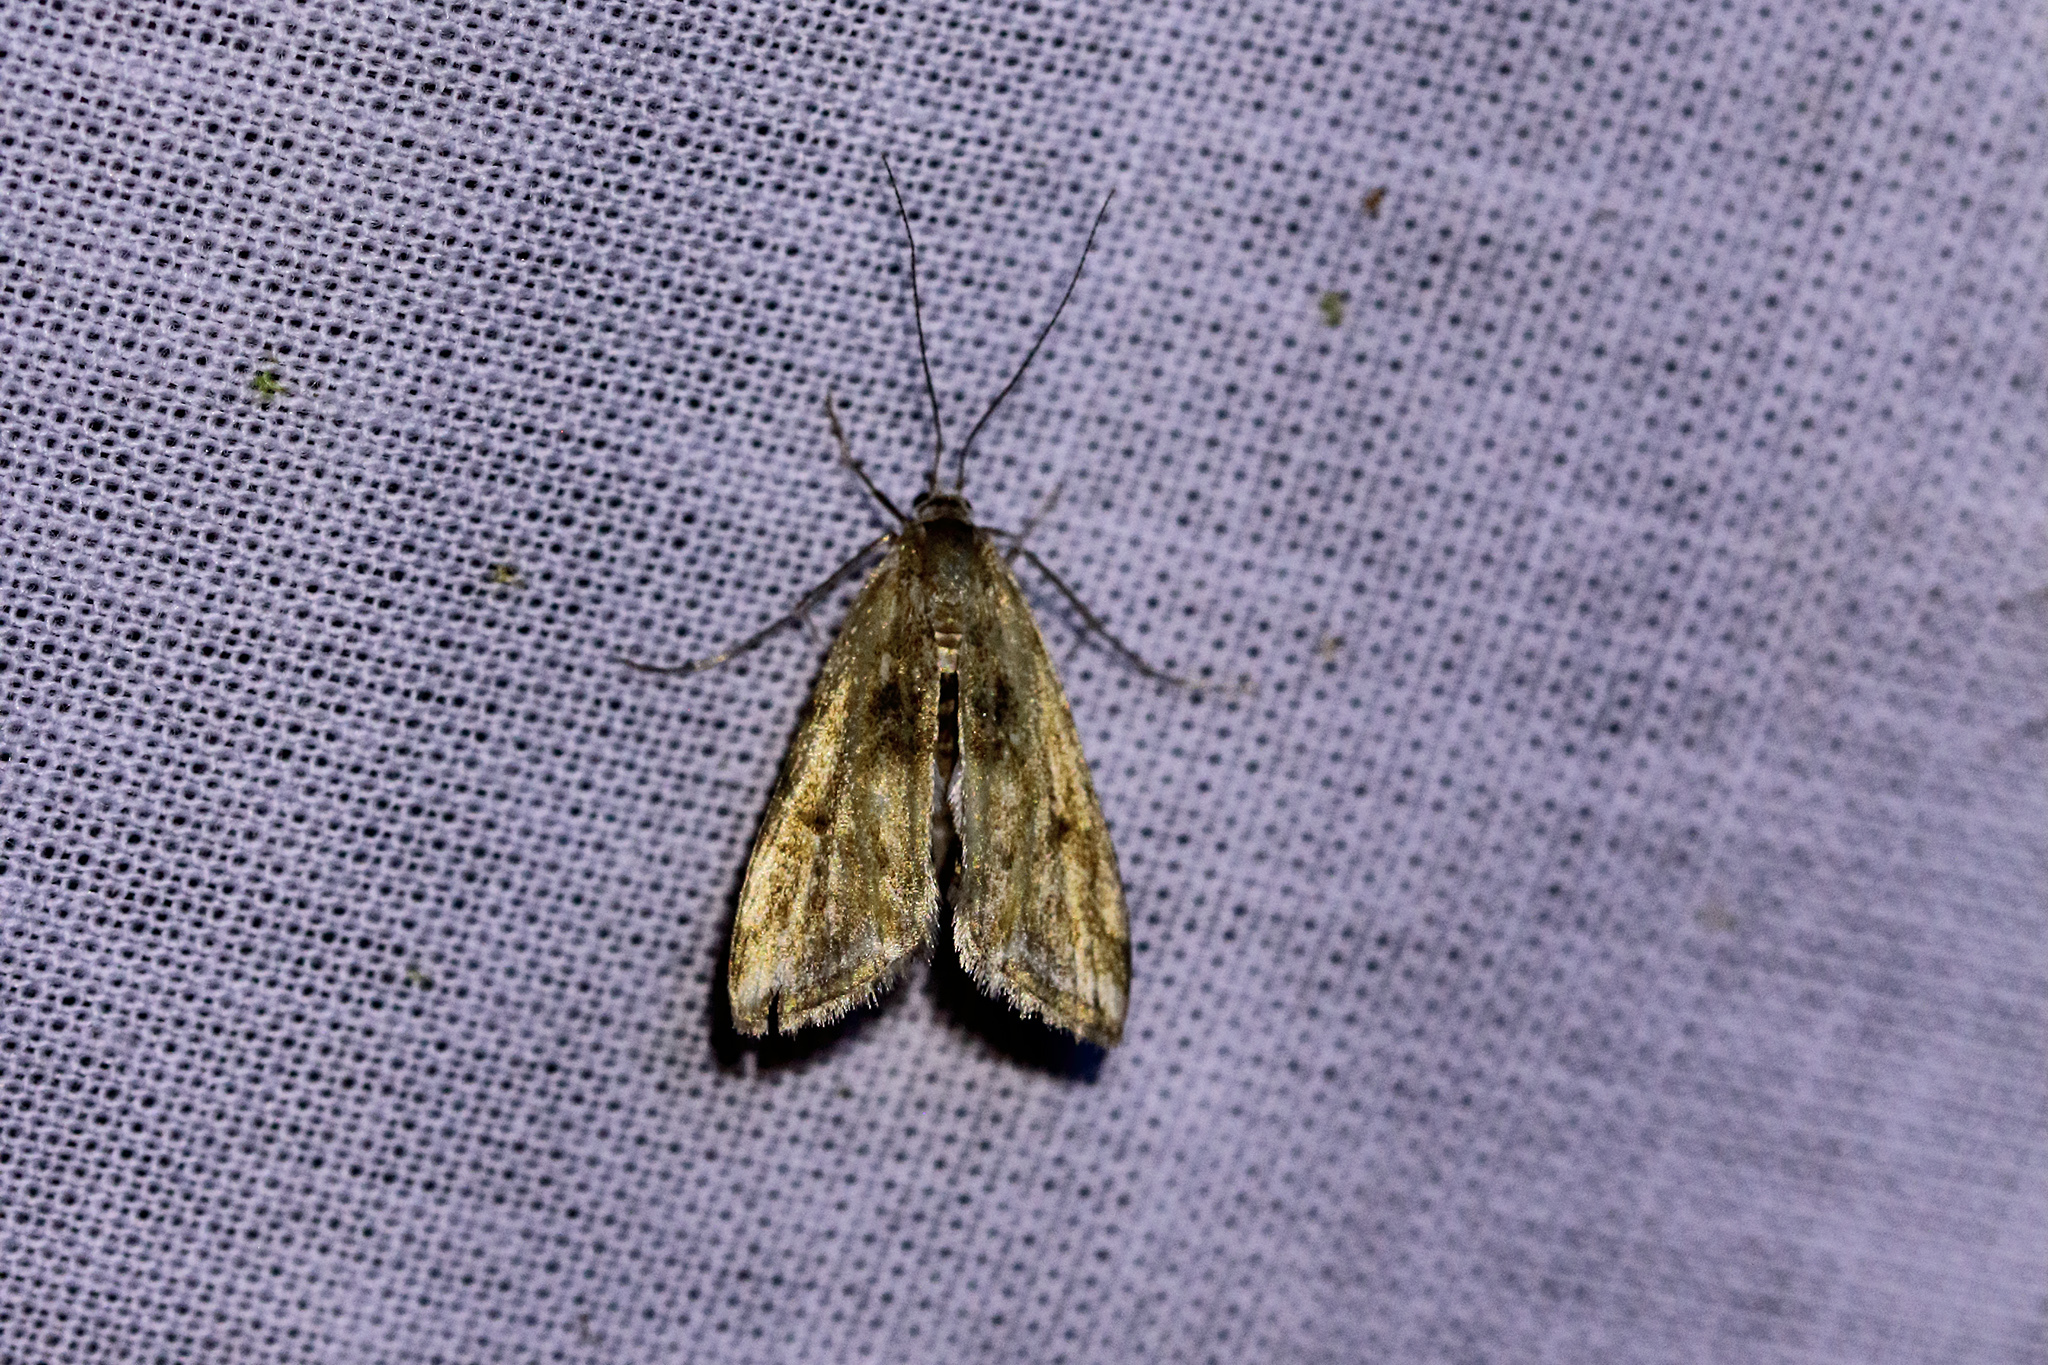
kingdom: Animalia
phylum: Arthropoda
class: Insecta
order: Lepidoptera
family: Crambidae
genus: Cataclysta
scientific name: Cataclysta lemnata
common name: Small china-mark
